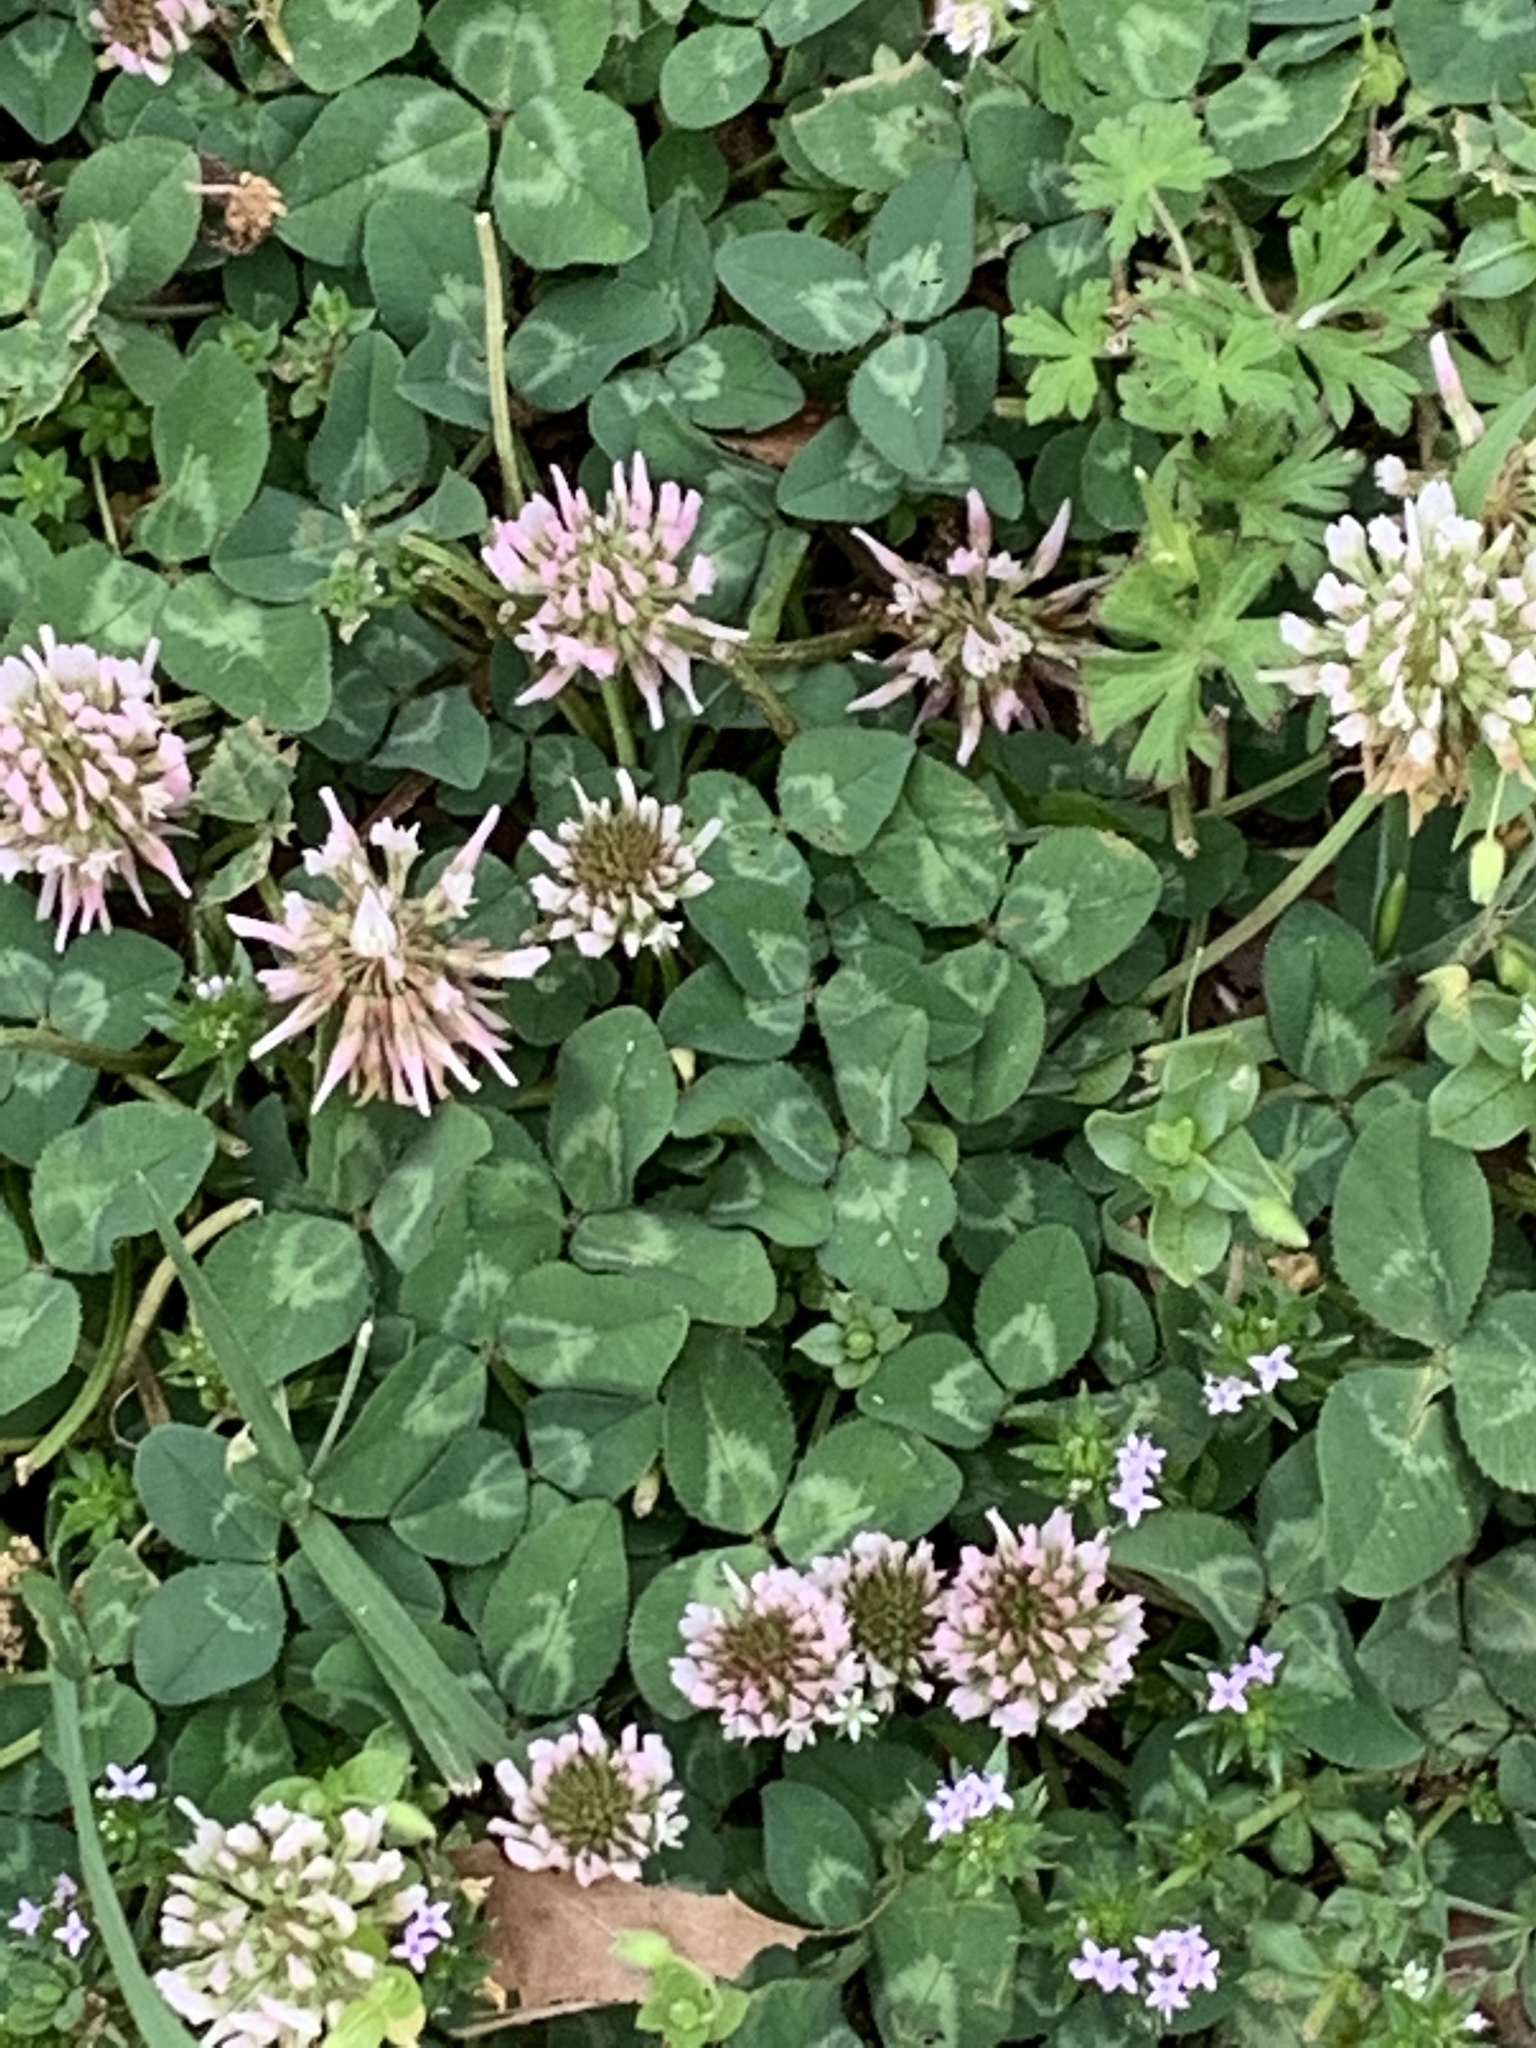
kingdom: Plantae
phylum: Tracheophyta
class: Magnoliopsida
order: Fabales
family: Fabaceae
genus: Trifolium
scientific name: Trifolium repens
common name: White clover
